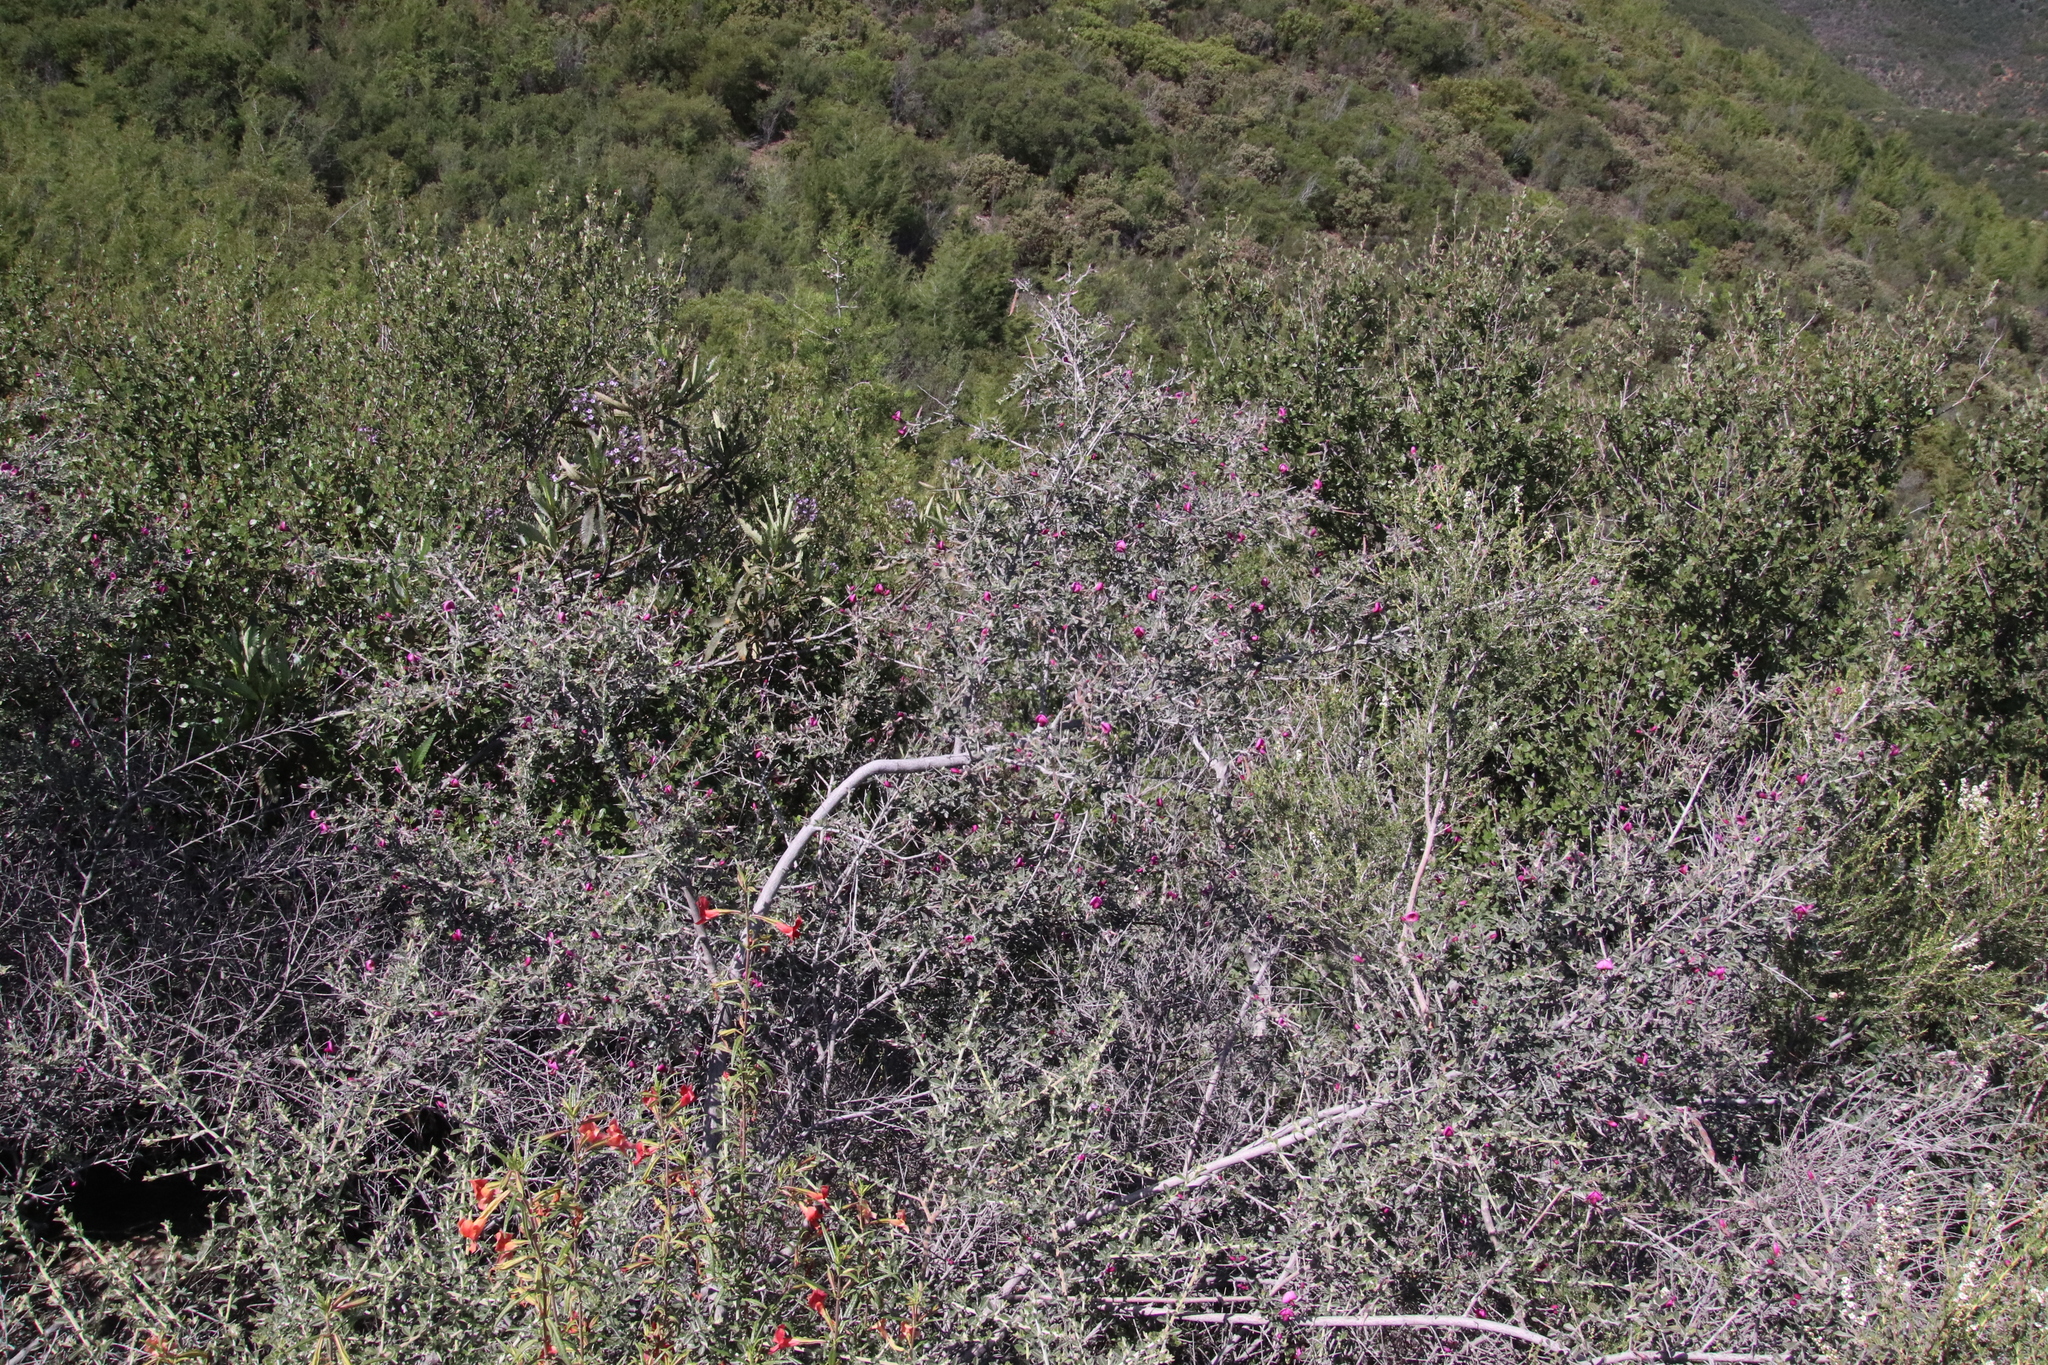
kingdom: Plantae
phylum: Tracheophyta
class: Magnoliopsida
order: Fabales
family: Fabaceae
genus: Pickeringia
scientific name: Pickeringia montana
